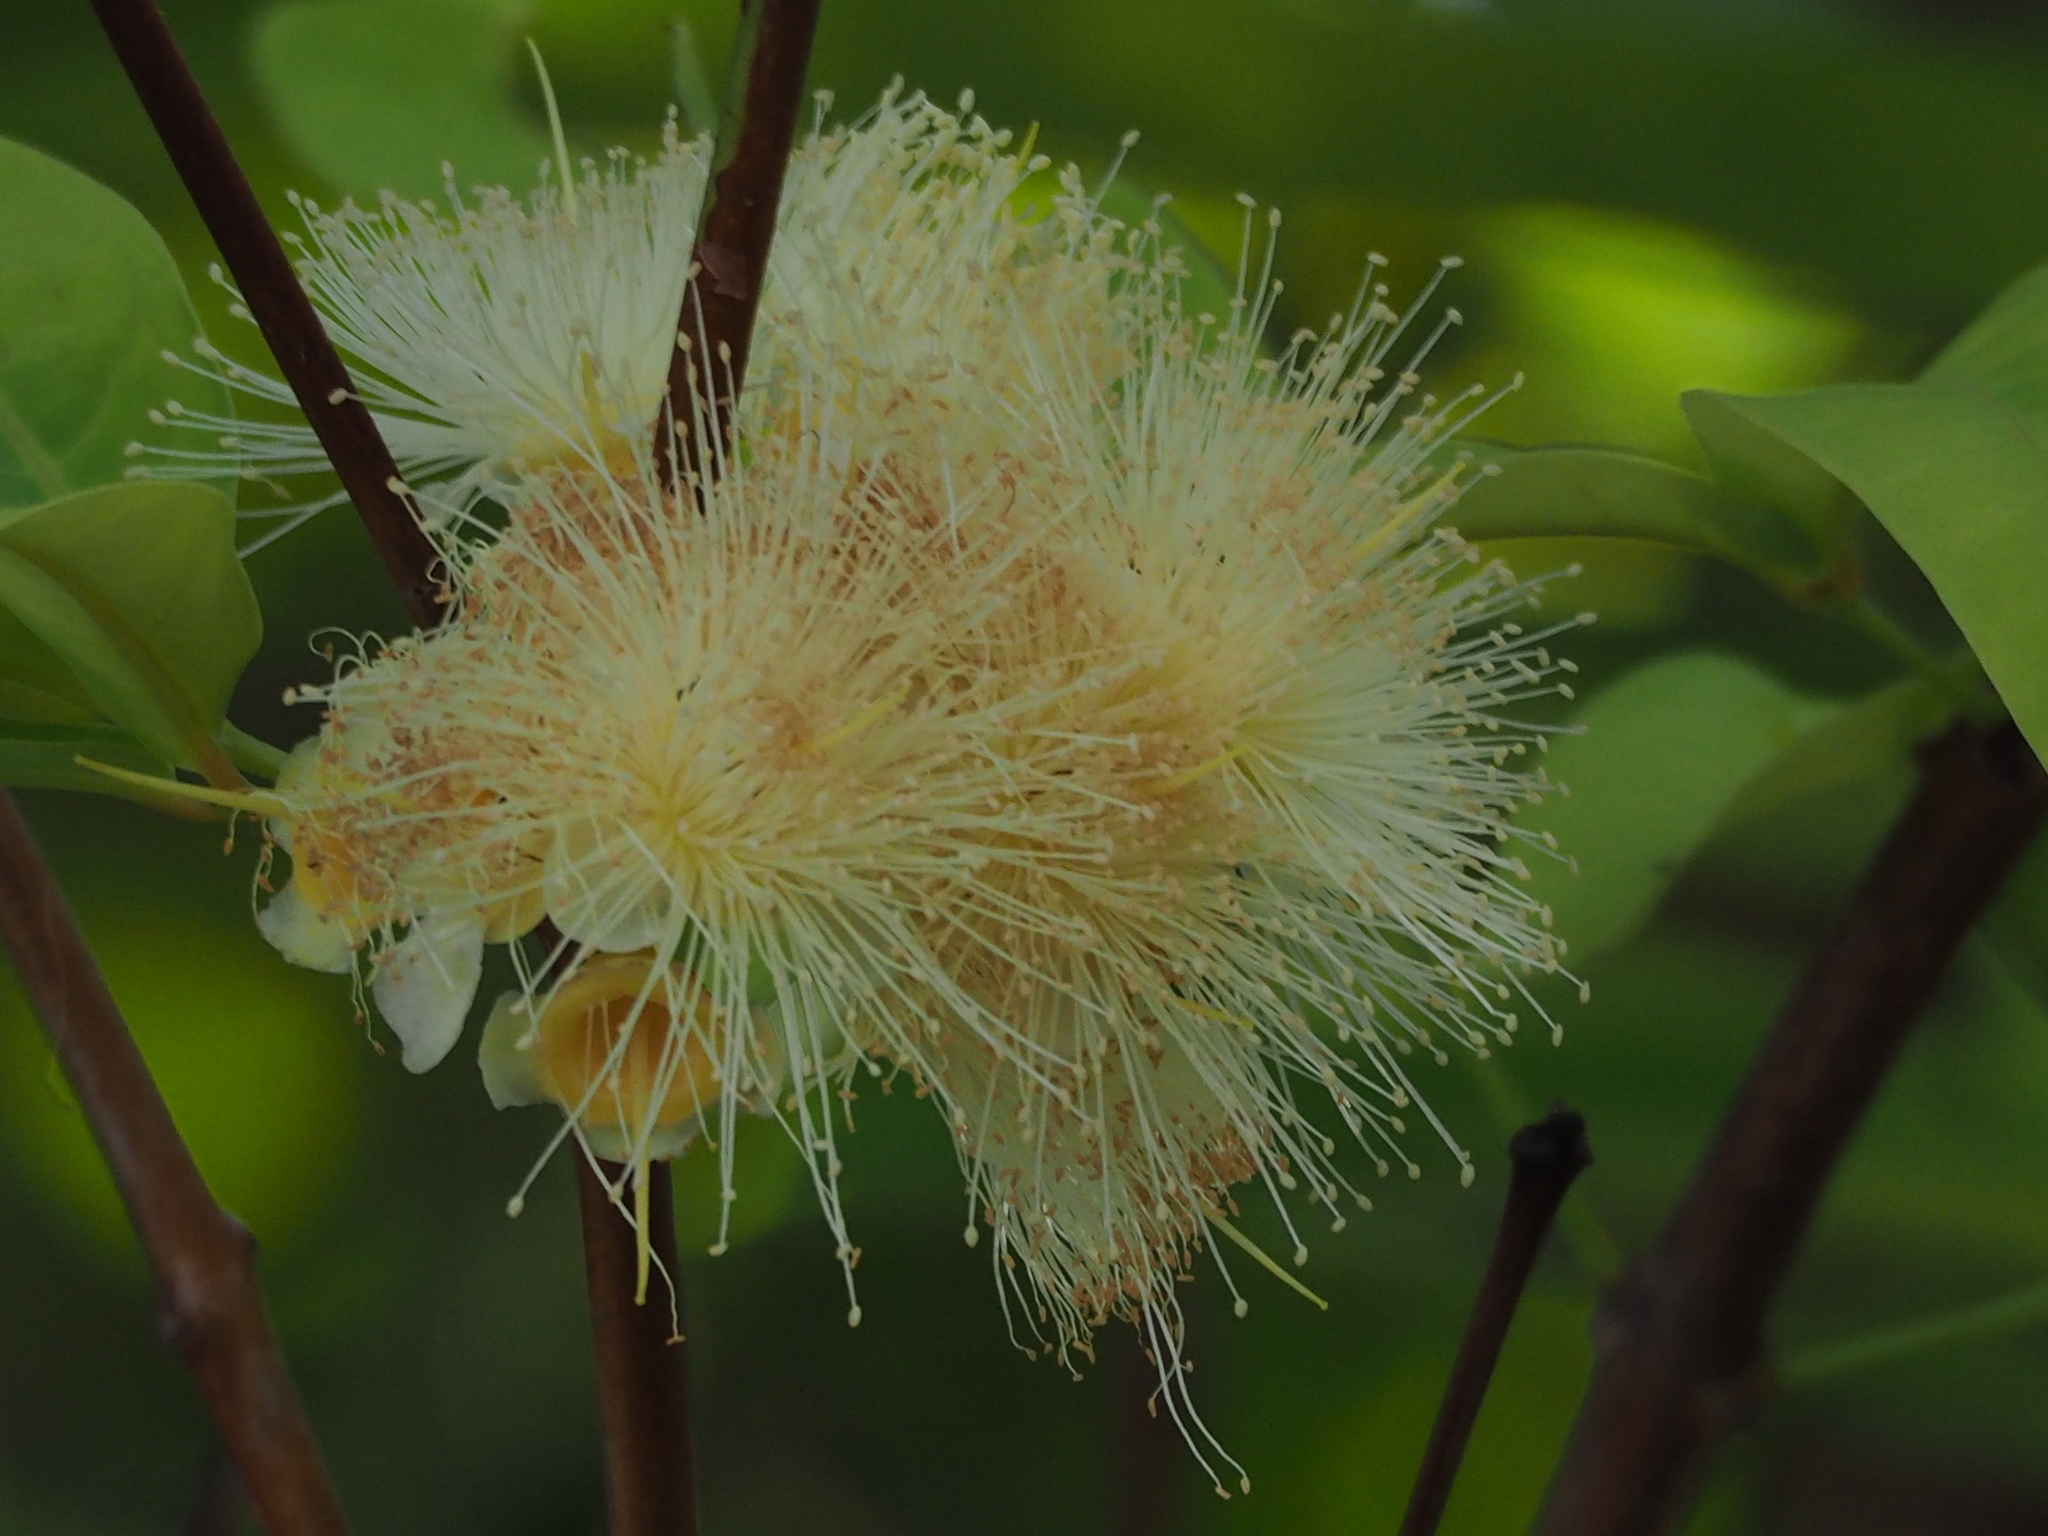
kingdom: Plantae
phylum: Tracheophyta
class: Magnoliopsida
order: Myrtales
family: Myrtaceae
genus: Syzygium
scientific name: Syzygium samarangense
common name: Semarang rose-apple
